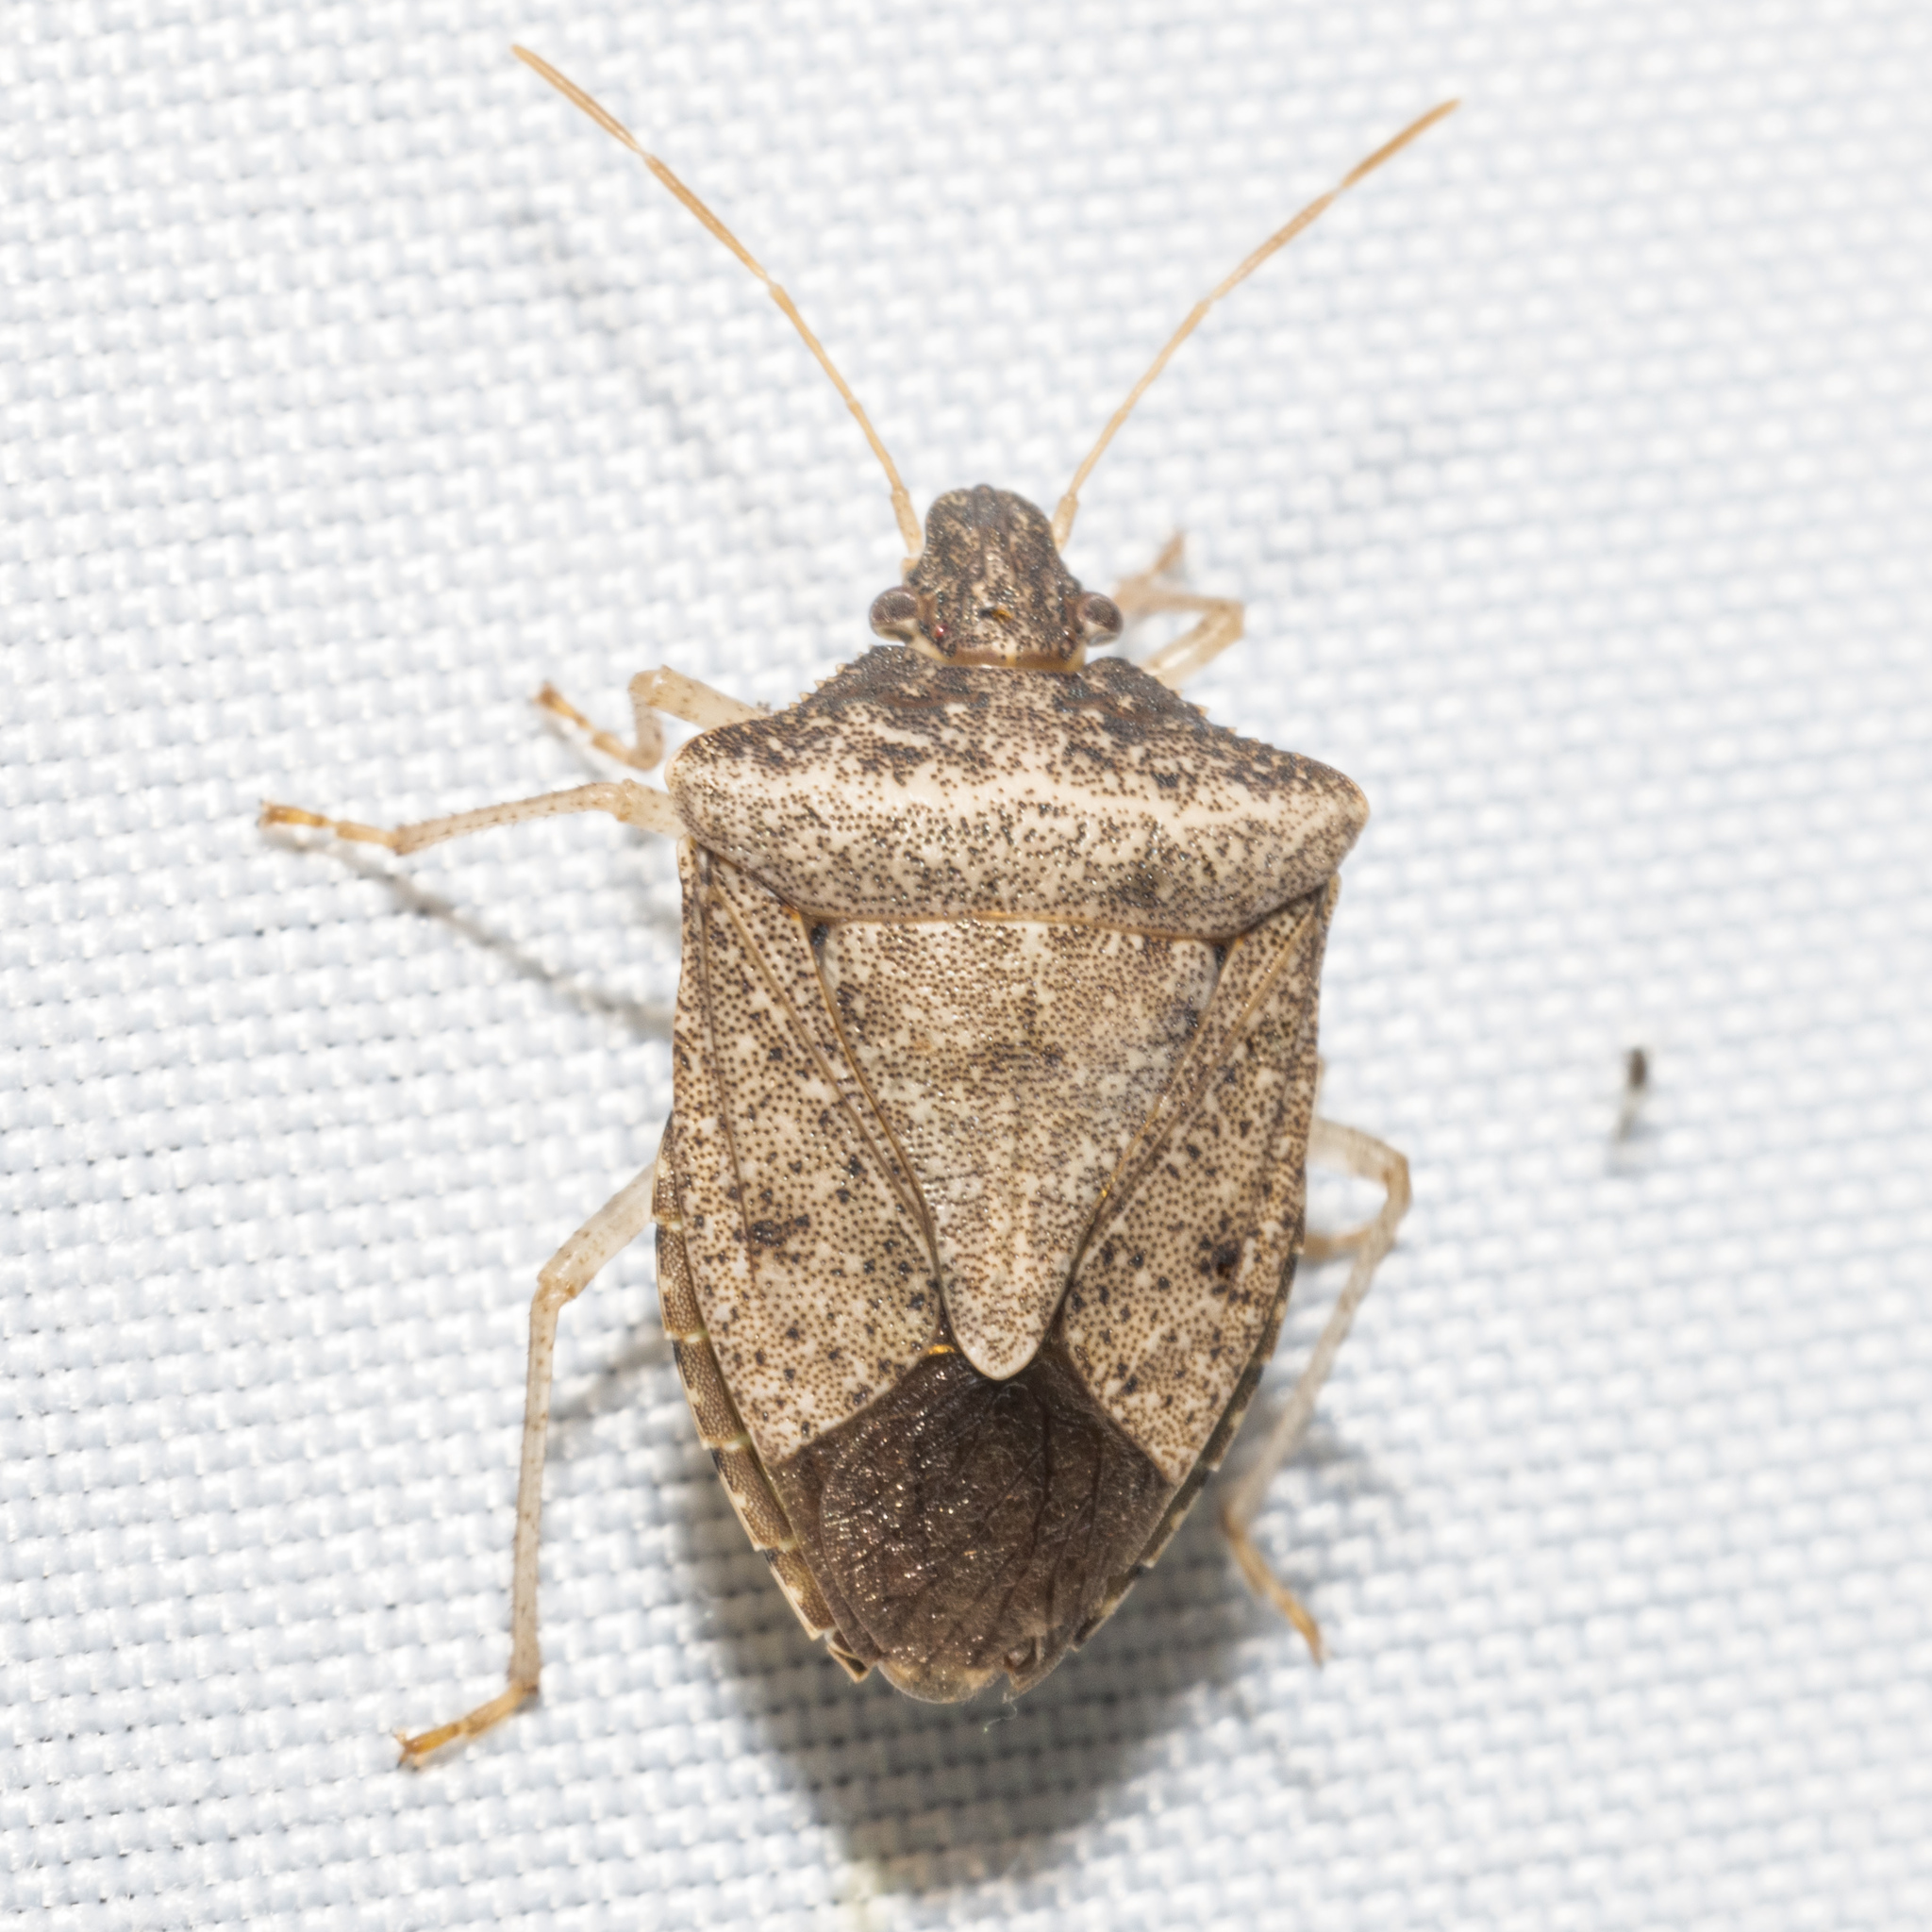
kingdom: Animalia
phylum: Arthropoda
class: Insecta
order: Hemiptera
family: Pentatomidae
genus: Euschistus
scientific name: Euschistus obscurus
